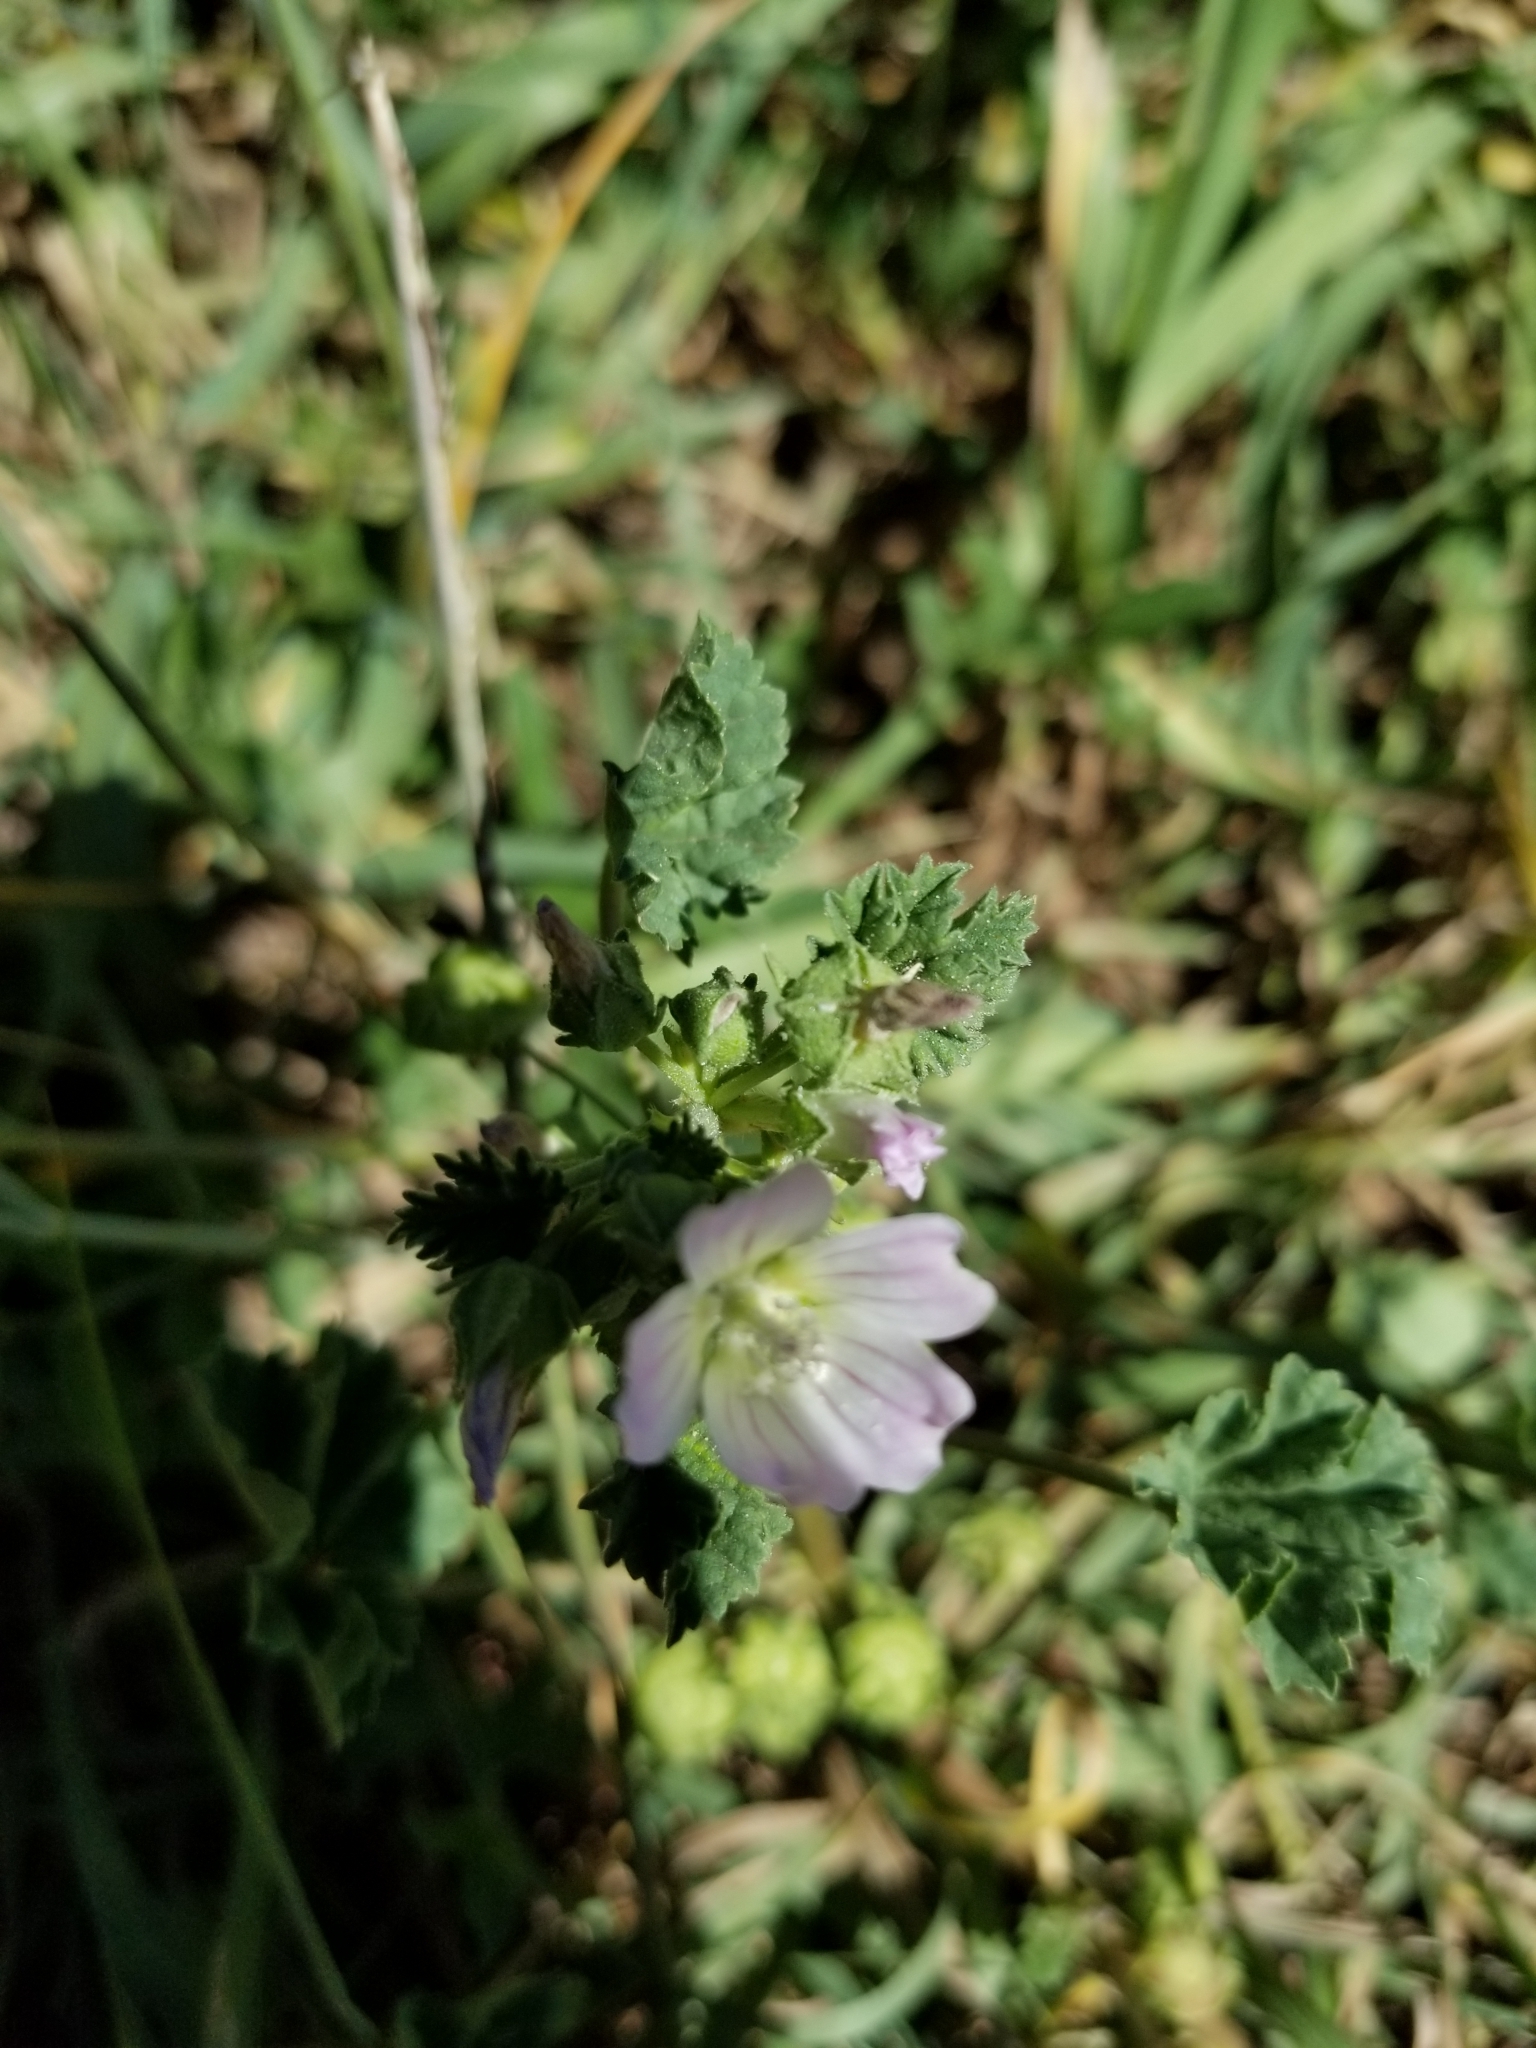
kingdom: Plantae
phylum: Tracheophyta
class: Magnoliopsida
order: Malvales
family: Malvaceae
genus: Malva
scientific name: Malva neglecta
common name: Common mallow
